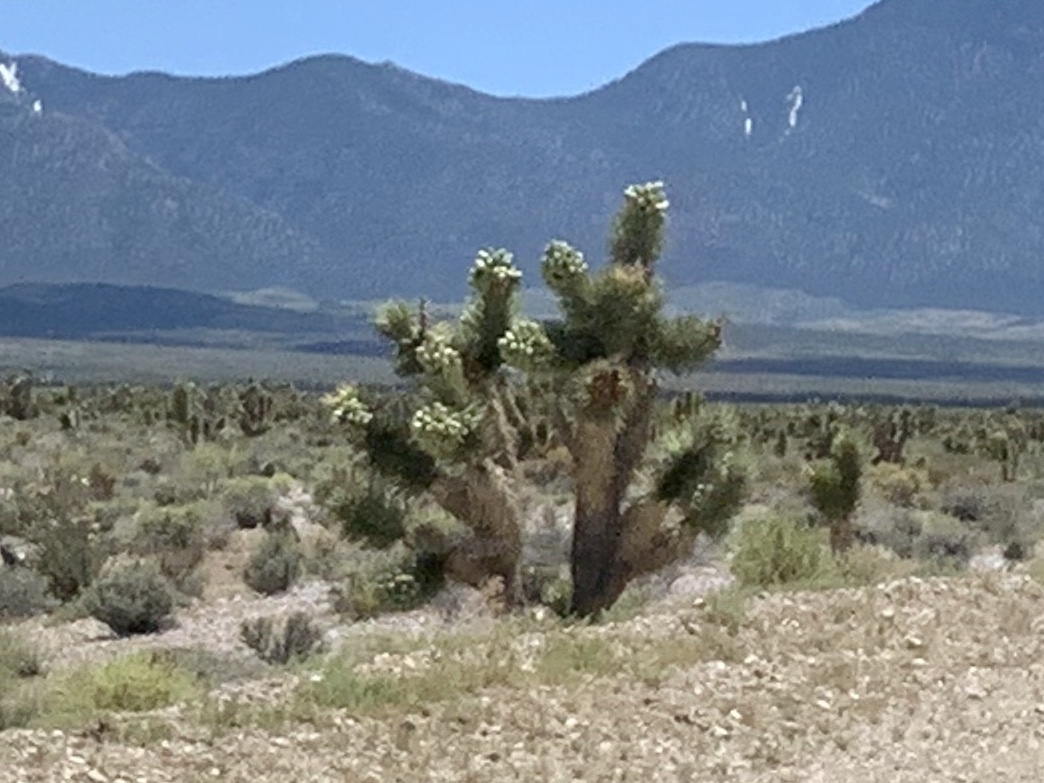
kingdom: Plantae
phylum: Tracheophyta
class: Liliopsida
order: Asparagales
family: Asparagaceae
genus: Yucca
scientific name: Yucca brevifolia
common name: Joshua tree
